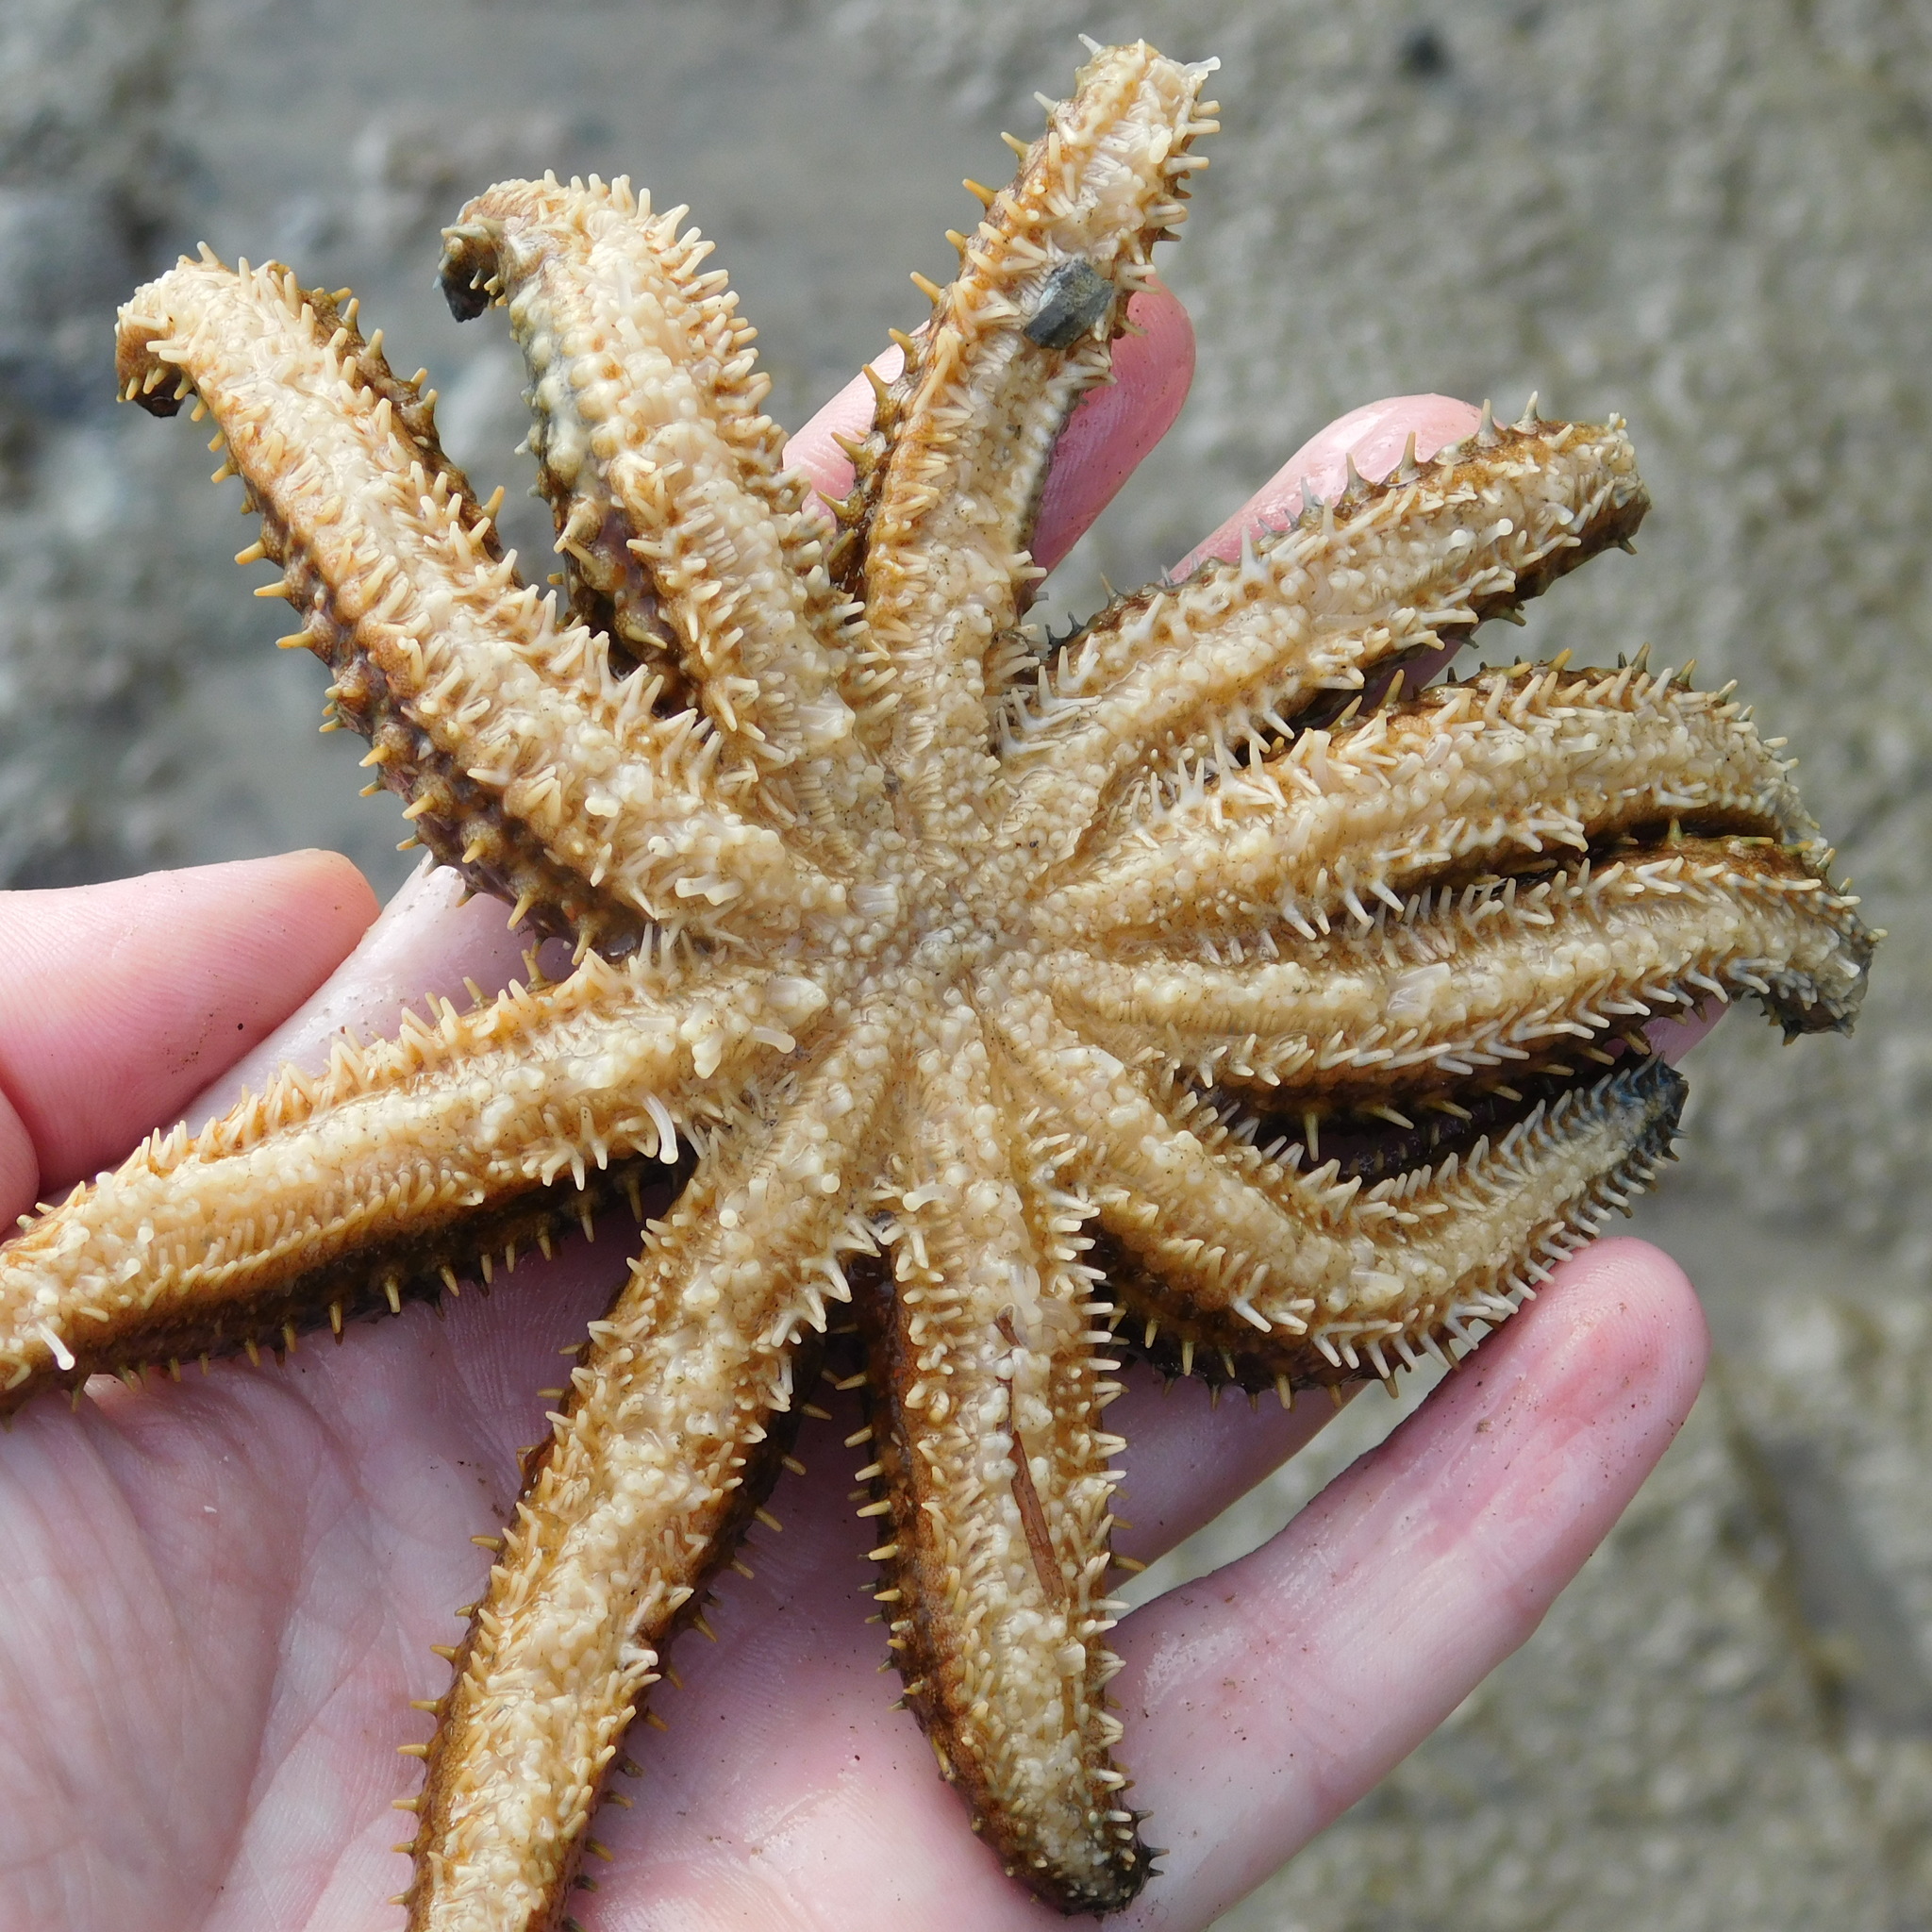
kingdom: Animalia
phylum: Echinodermata
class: Asteroidea
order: Forcipulatida
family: Asteriidae
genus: Coscinasterias
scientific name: Coscinasterias muricata
